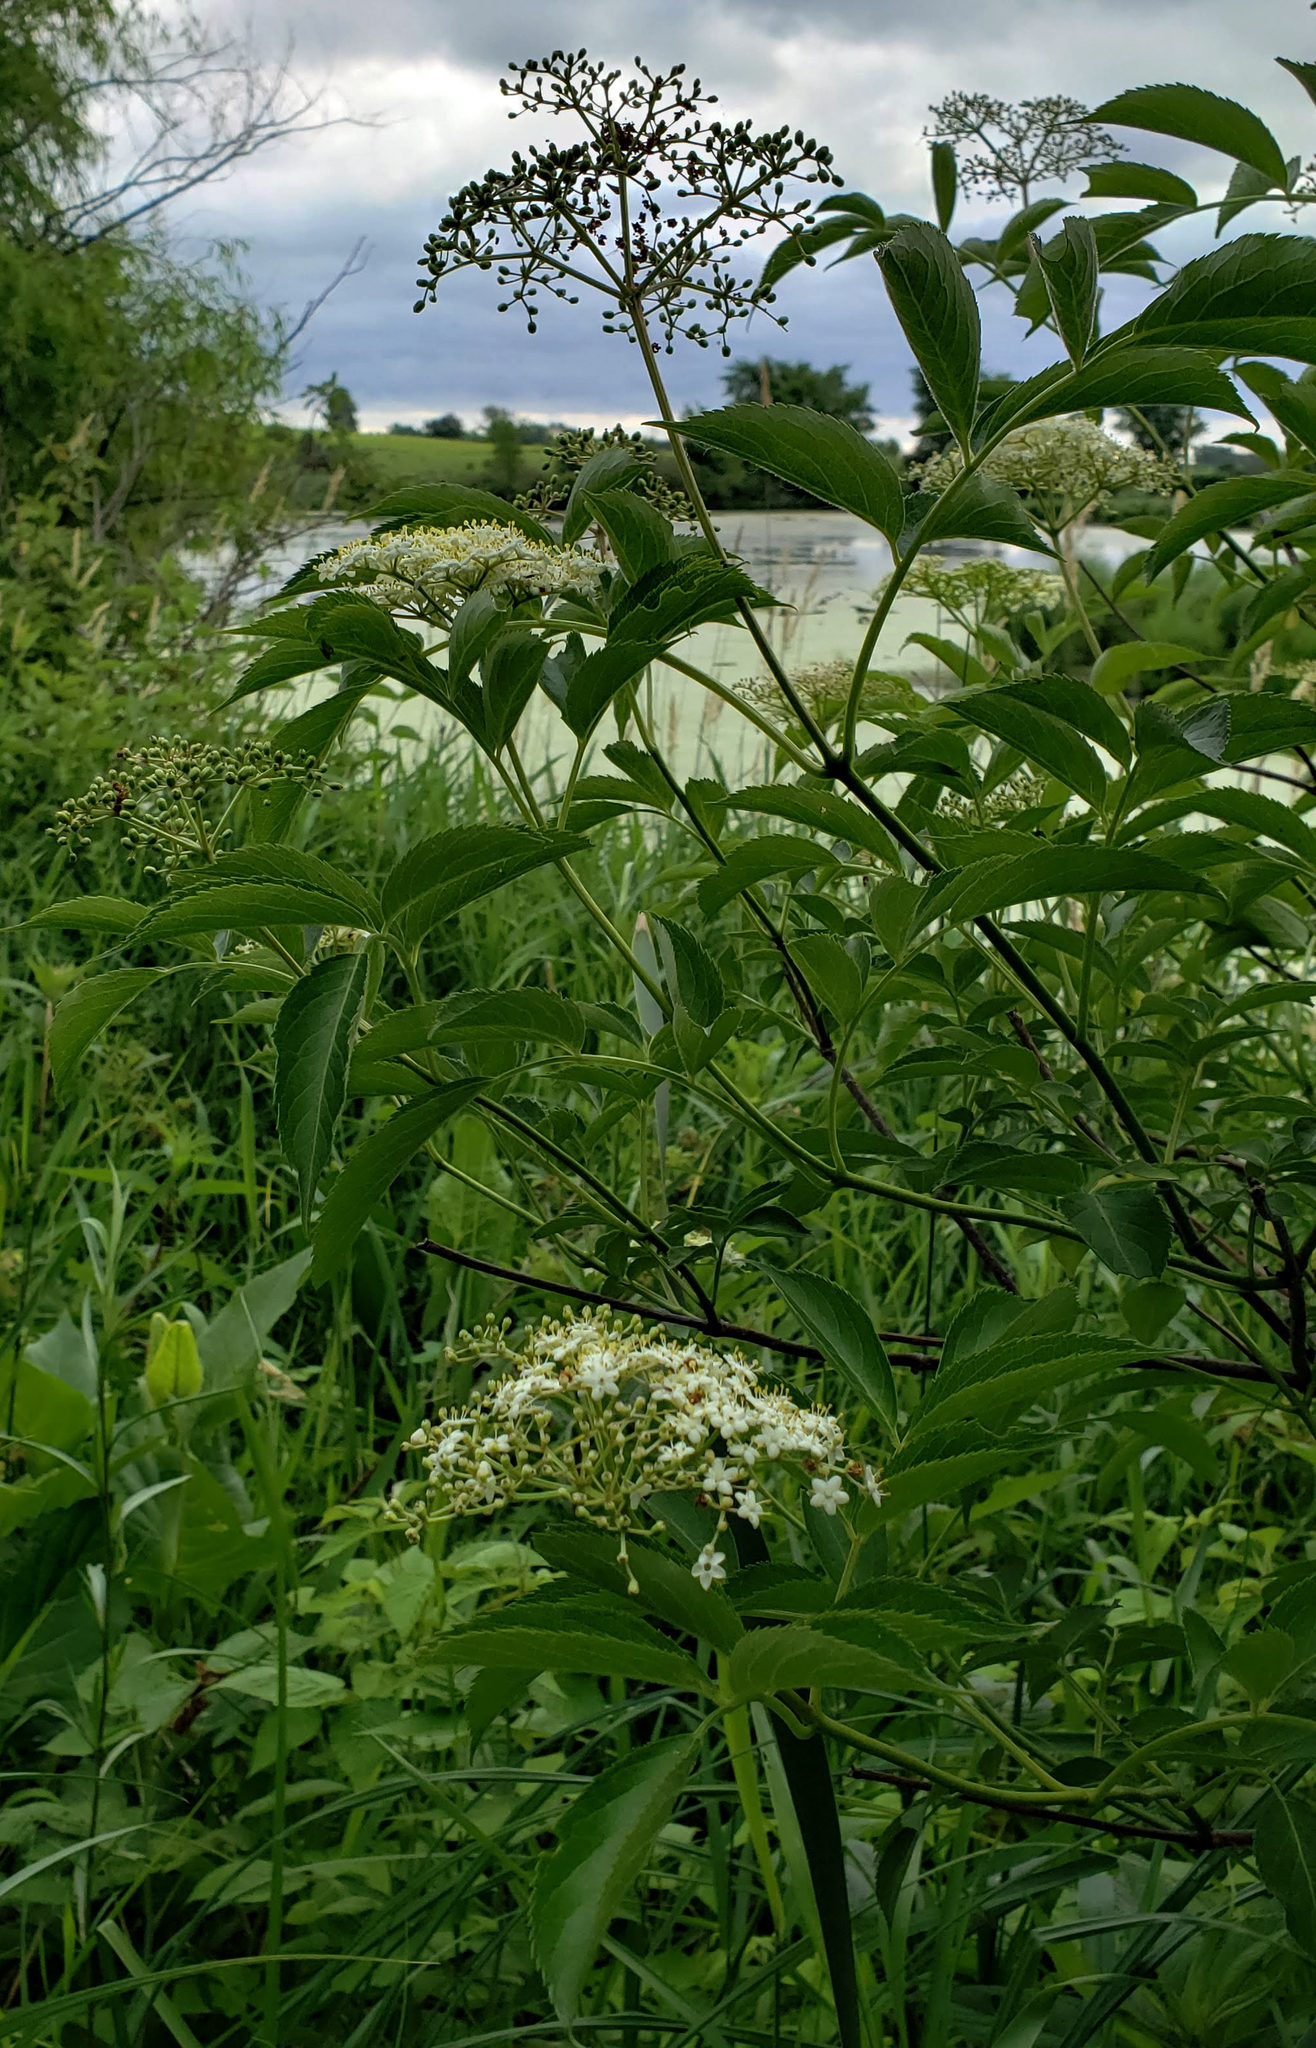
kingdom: Plantae
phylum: Tracheophyta
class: Magnoliopsida
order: Dipsacales
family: Viburnaceae
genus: Sambucus
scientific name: Sambucus canadensis
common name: American elder
